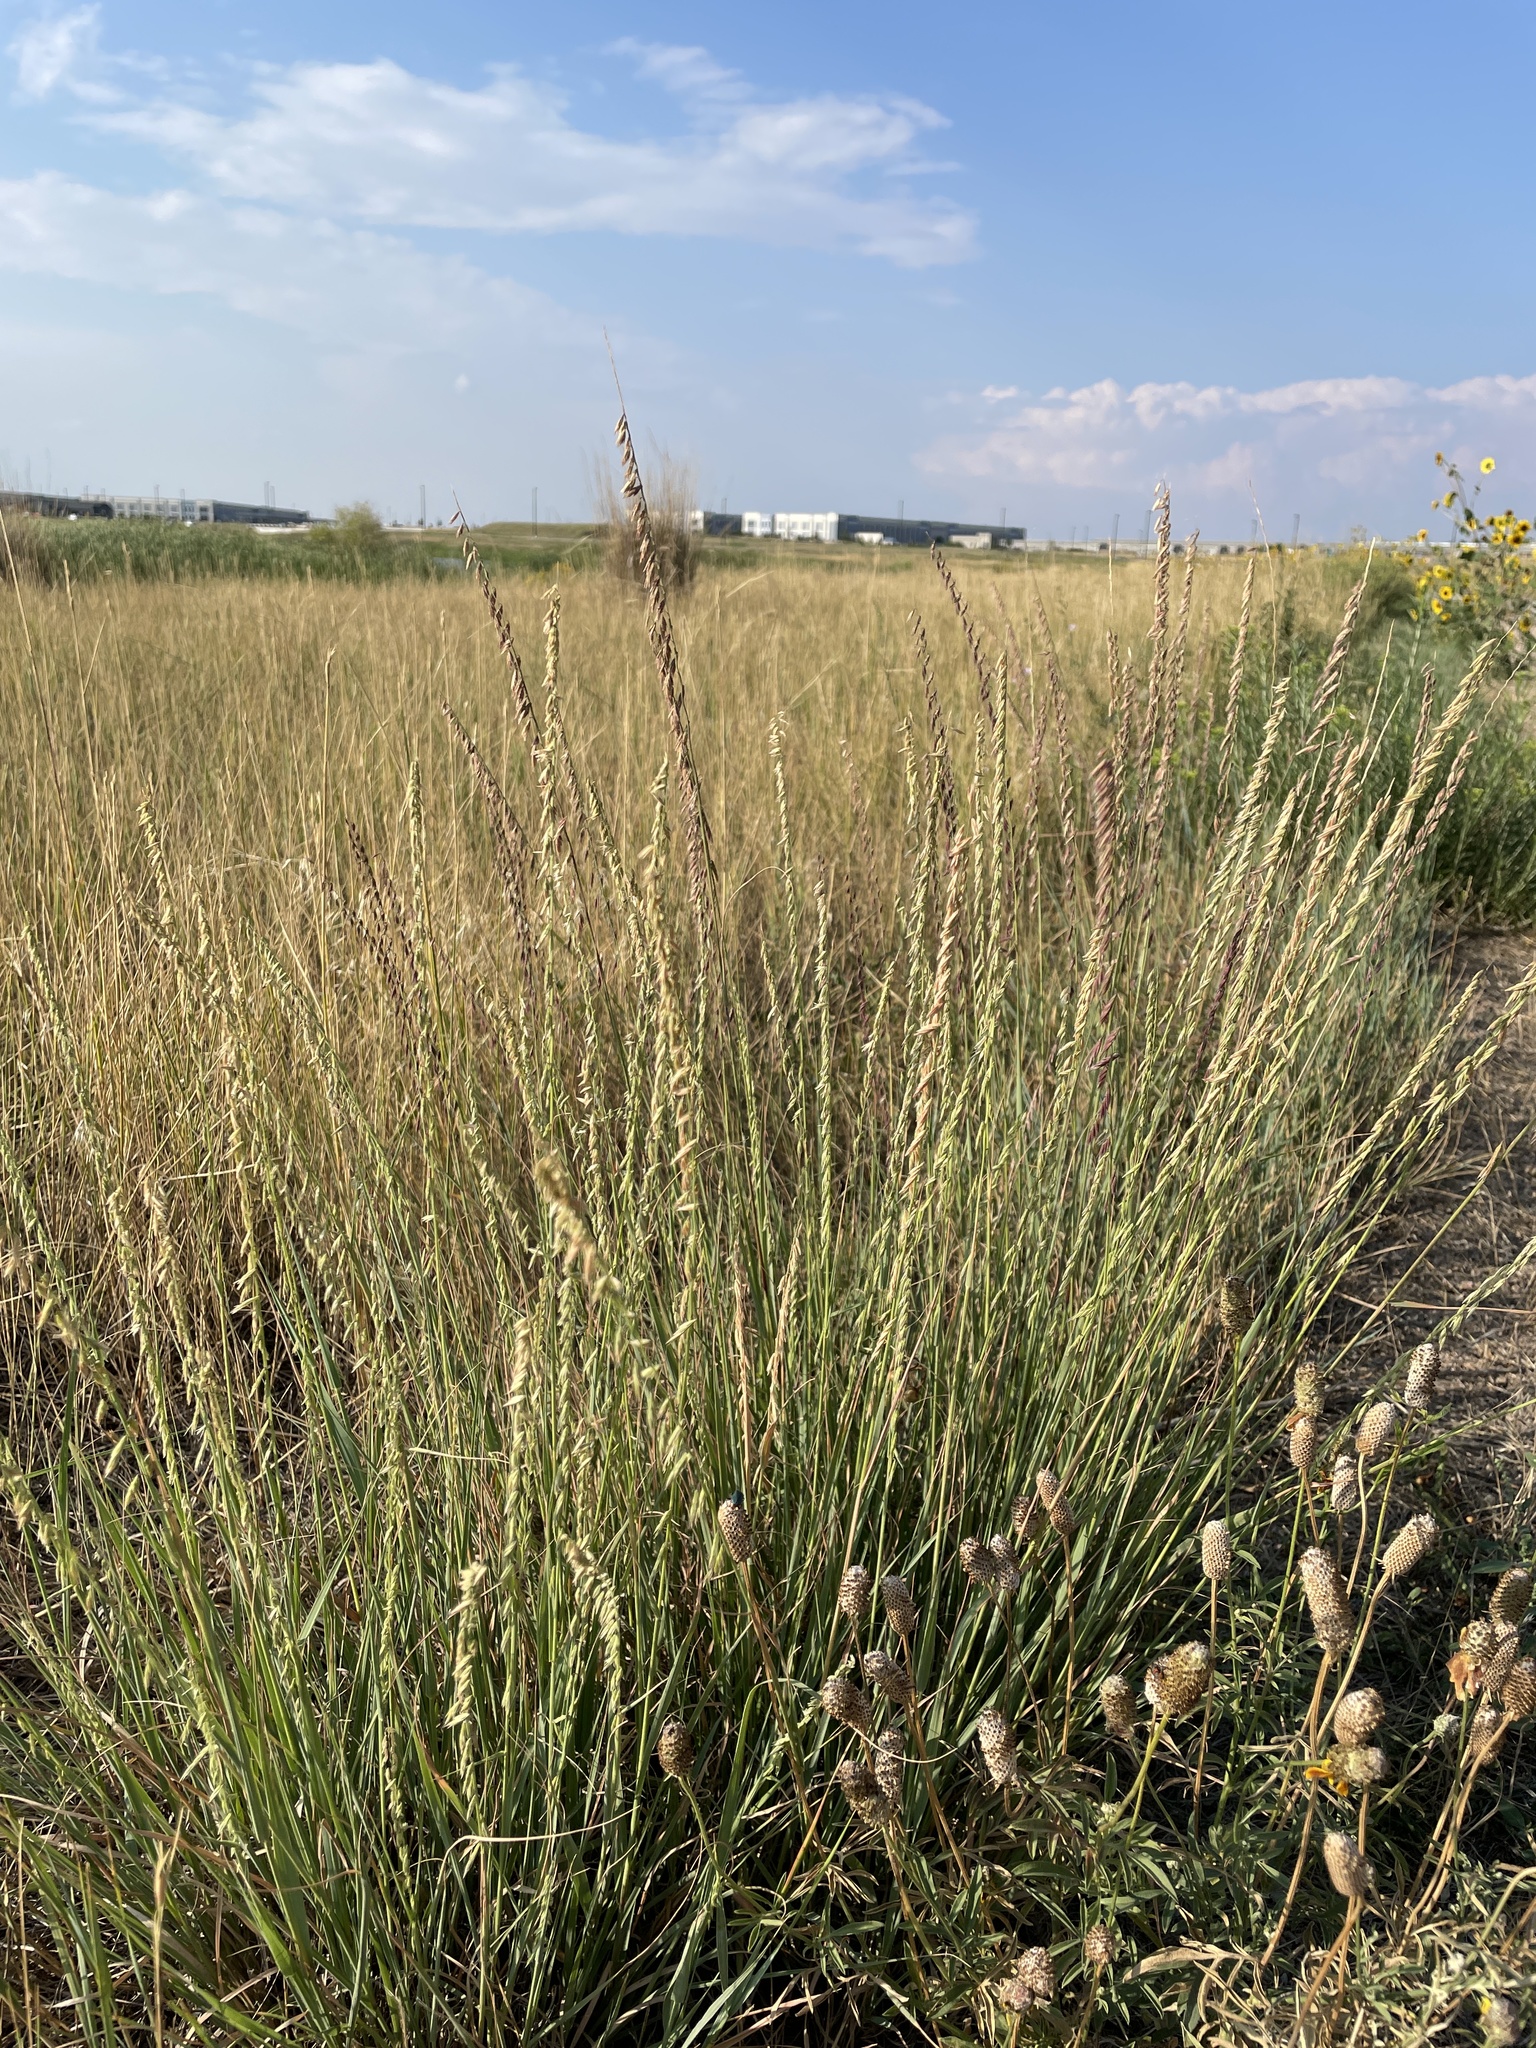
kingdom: Plantae
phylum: Tracheophyta
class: Liliopsida
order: Poales
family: Poaceae
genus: Bouteloua
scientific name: Bouteloua curtipendula
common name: Side-oats grama
